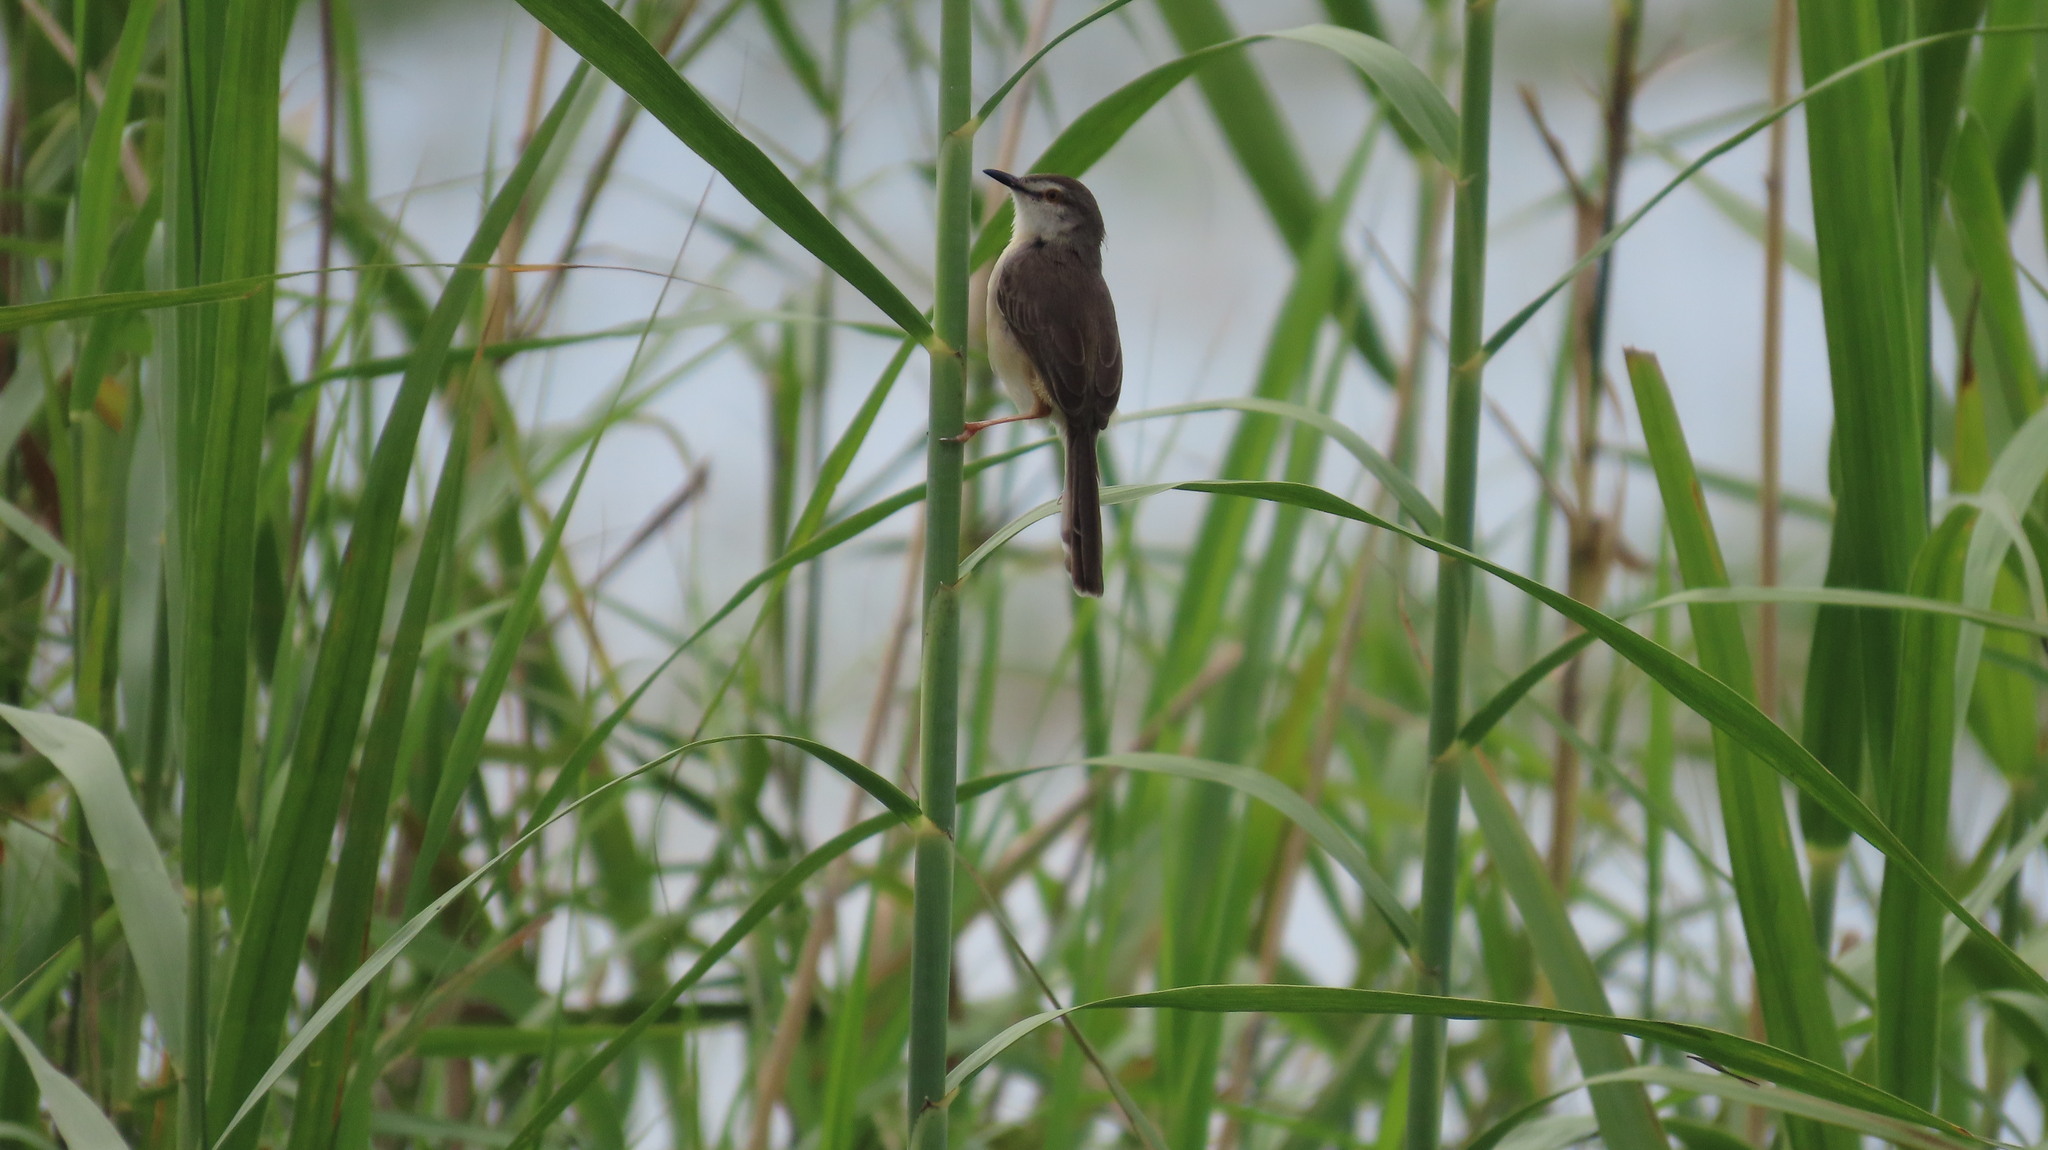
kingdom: Animalia
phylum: Chordata
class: Aves
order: Passeriformes
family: Cisticolidae
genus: Prinia
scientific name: Prinia inornata
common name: Plain prinia
